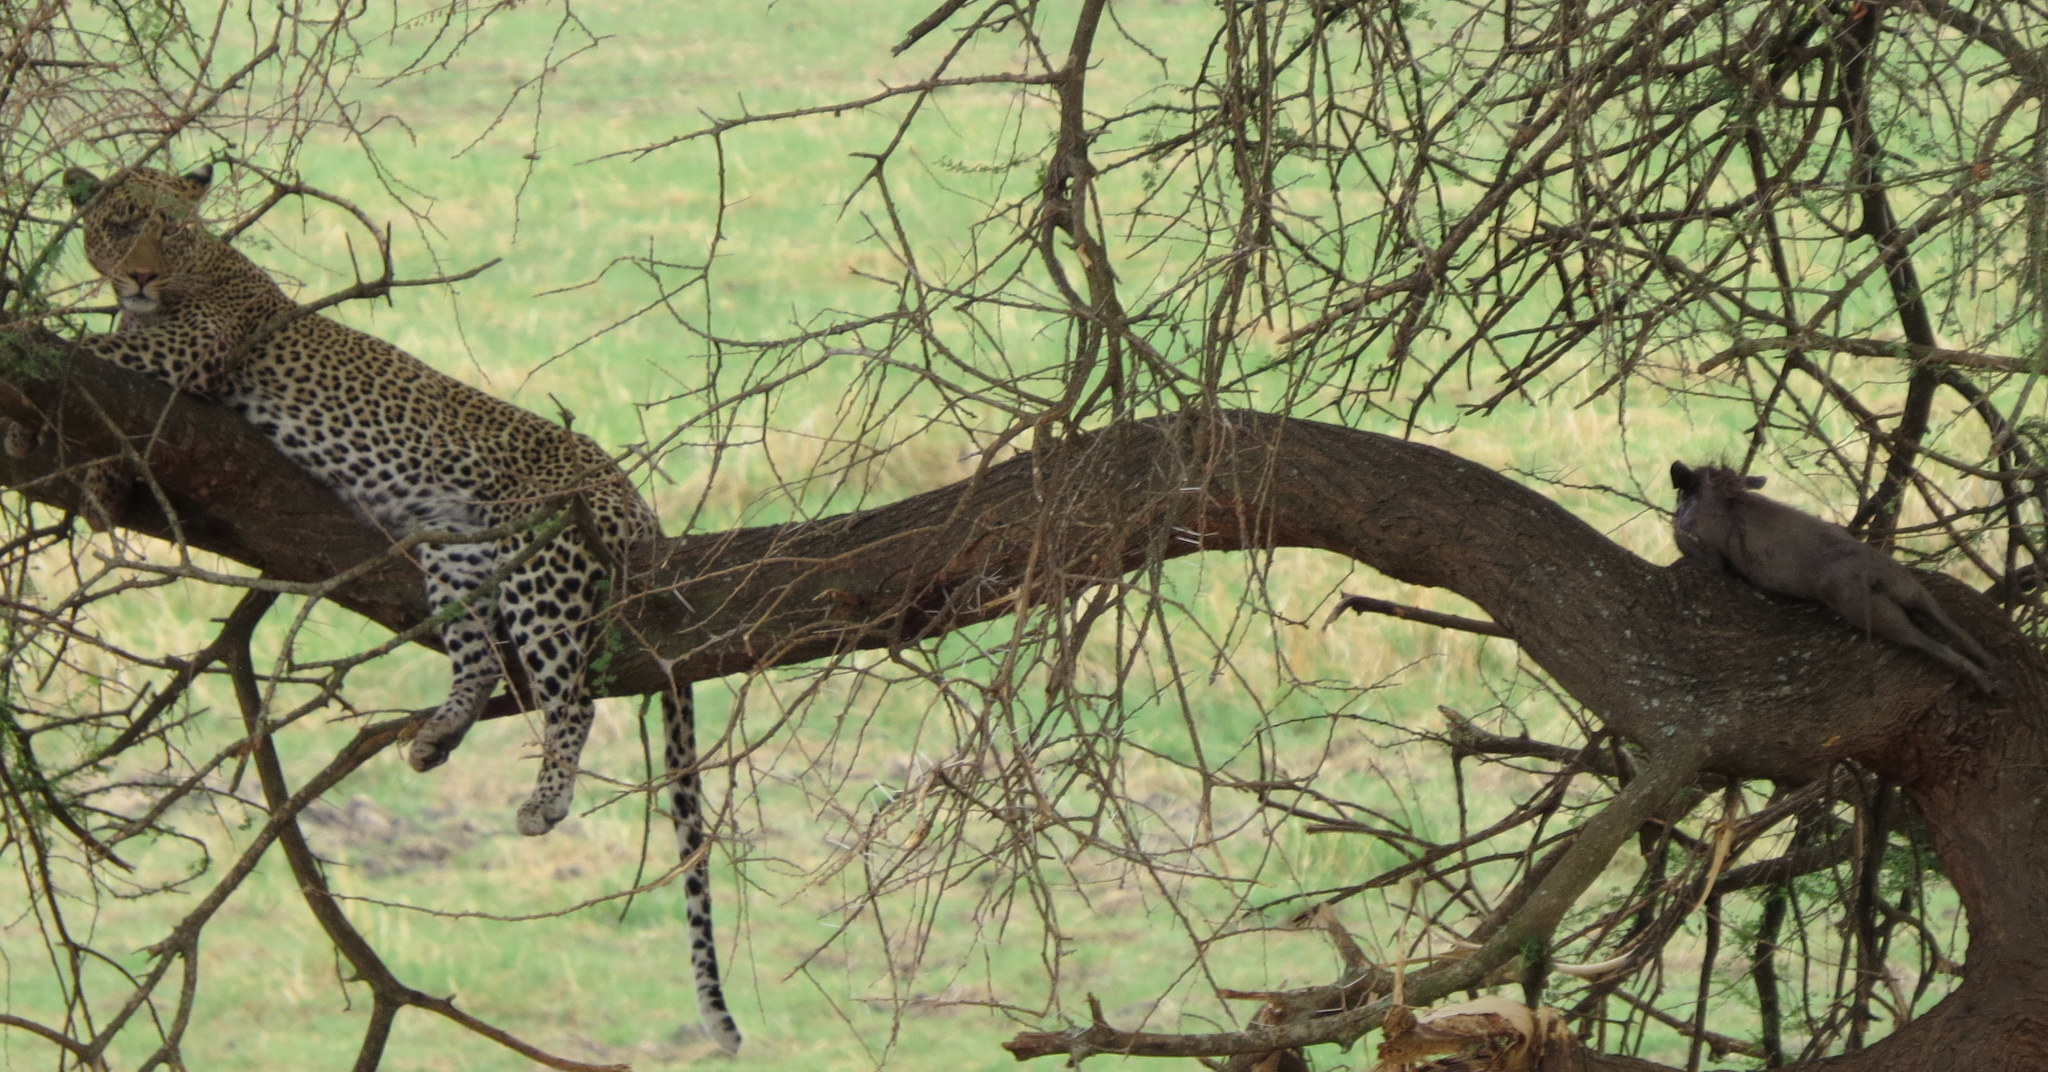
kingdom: Animalia
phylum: Chordata
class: Mammalia
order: Carnivora
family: Felidae
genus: Panthera
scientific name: Panthera pardus
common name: Leopard
